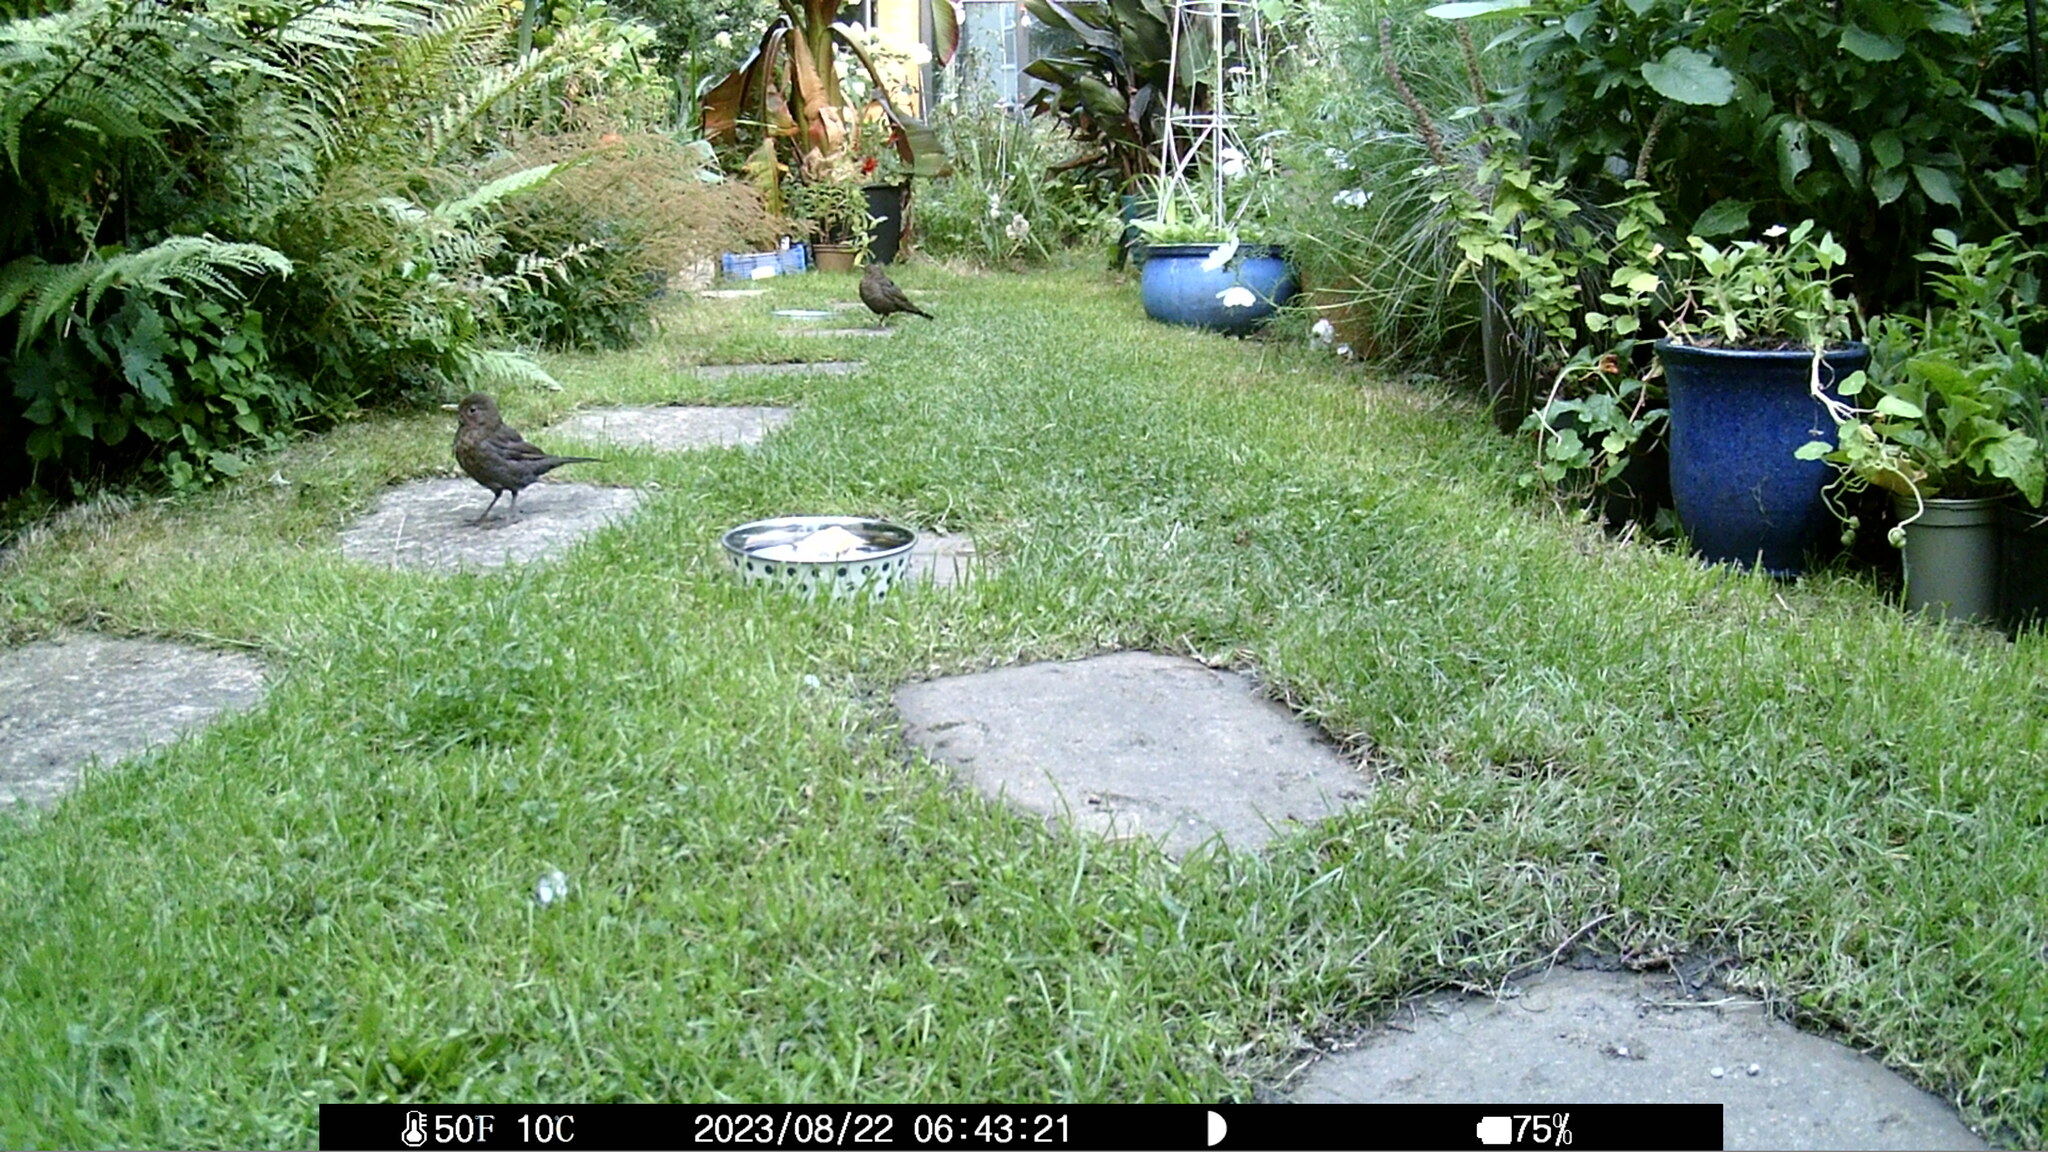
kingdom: Animalia
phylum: Chordata
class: Aves
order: Passeriformes
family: Turdidae
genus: Turdus
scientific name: Turdus merula
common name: Common blackbird
